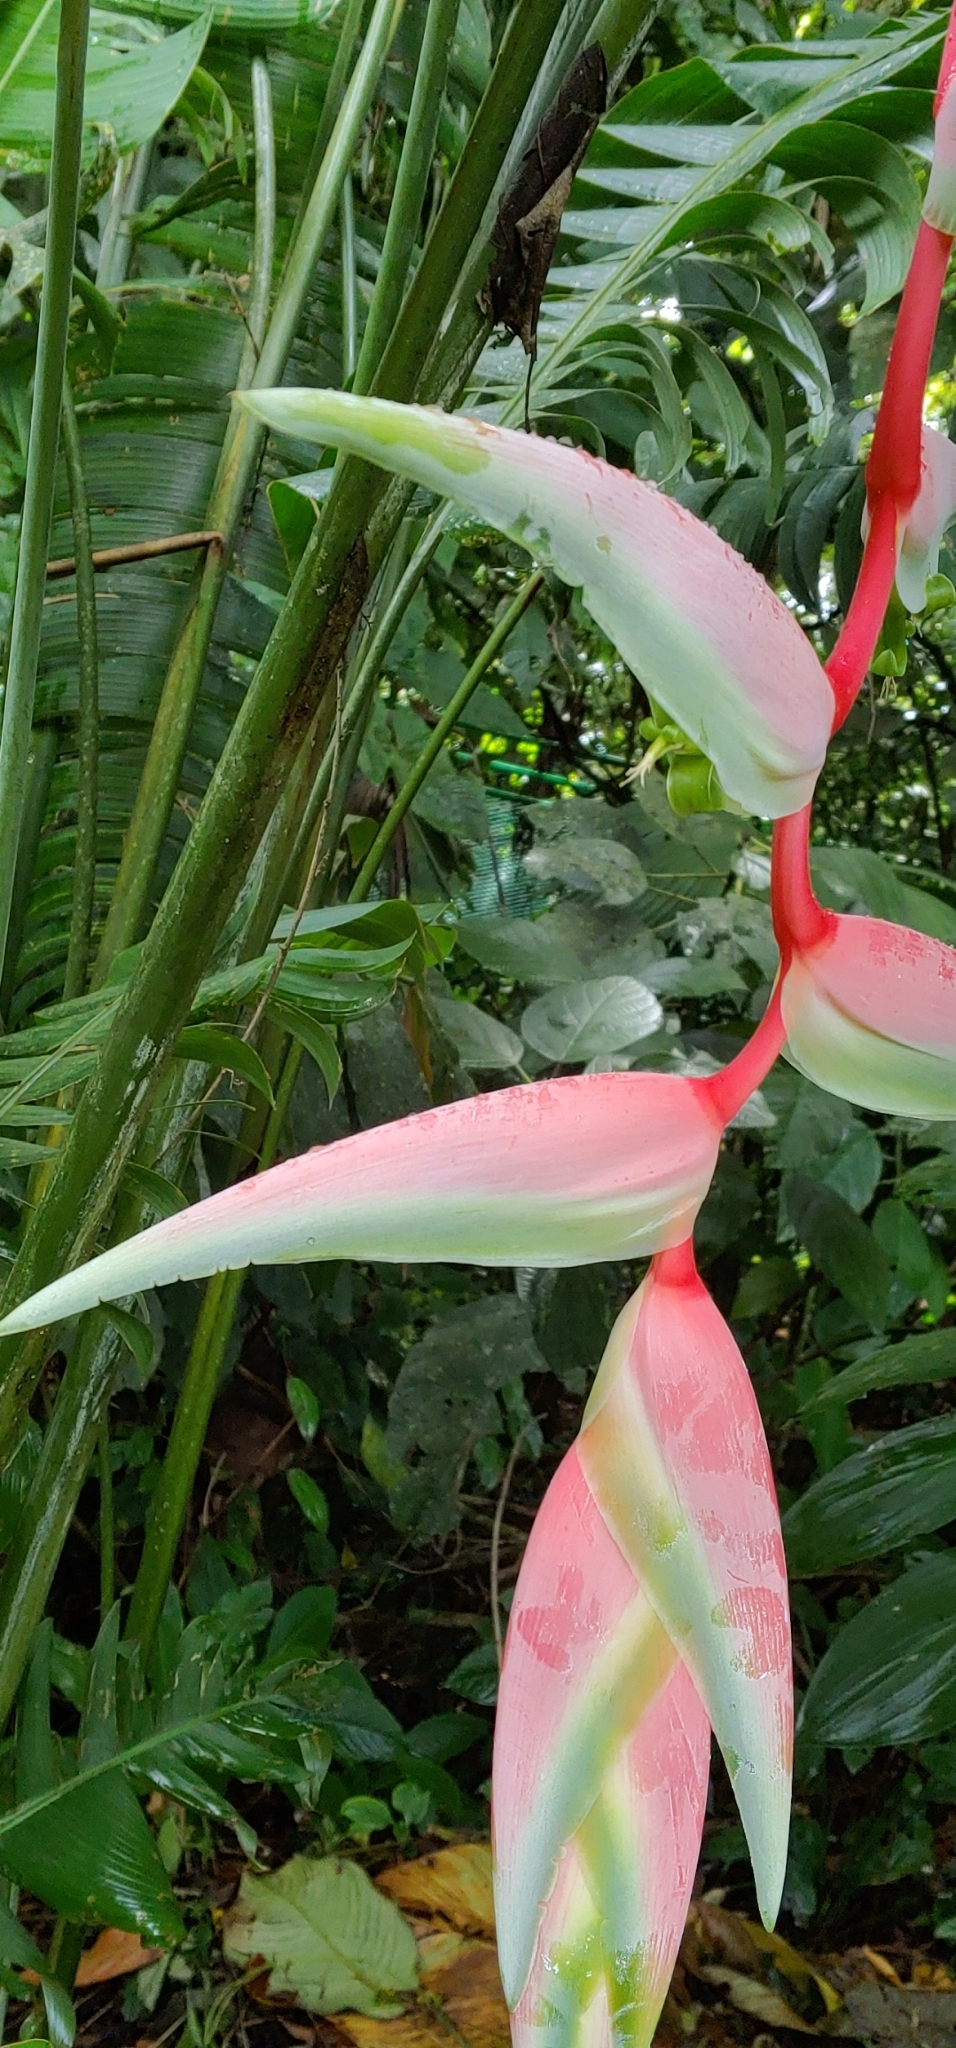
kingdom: Plantae
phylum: Tracheophyta
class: Liliopsida
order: Zingiberales
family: Heliconiaceae
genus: Heliconia
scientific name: Heliconia chartacea
